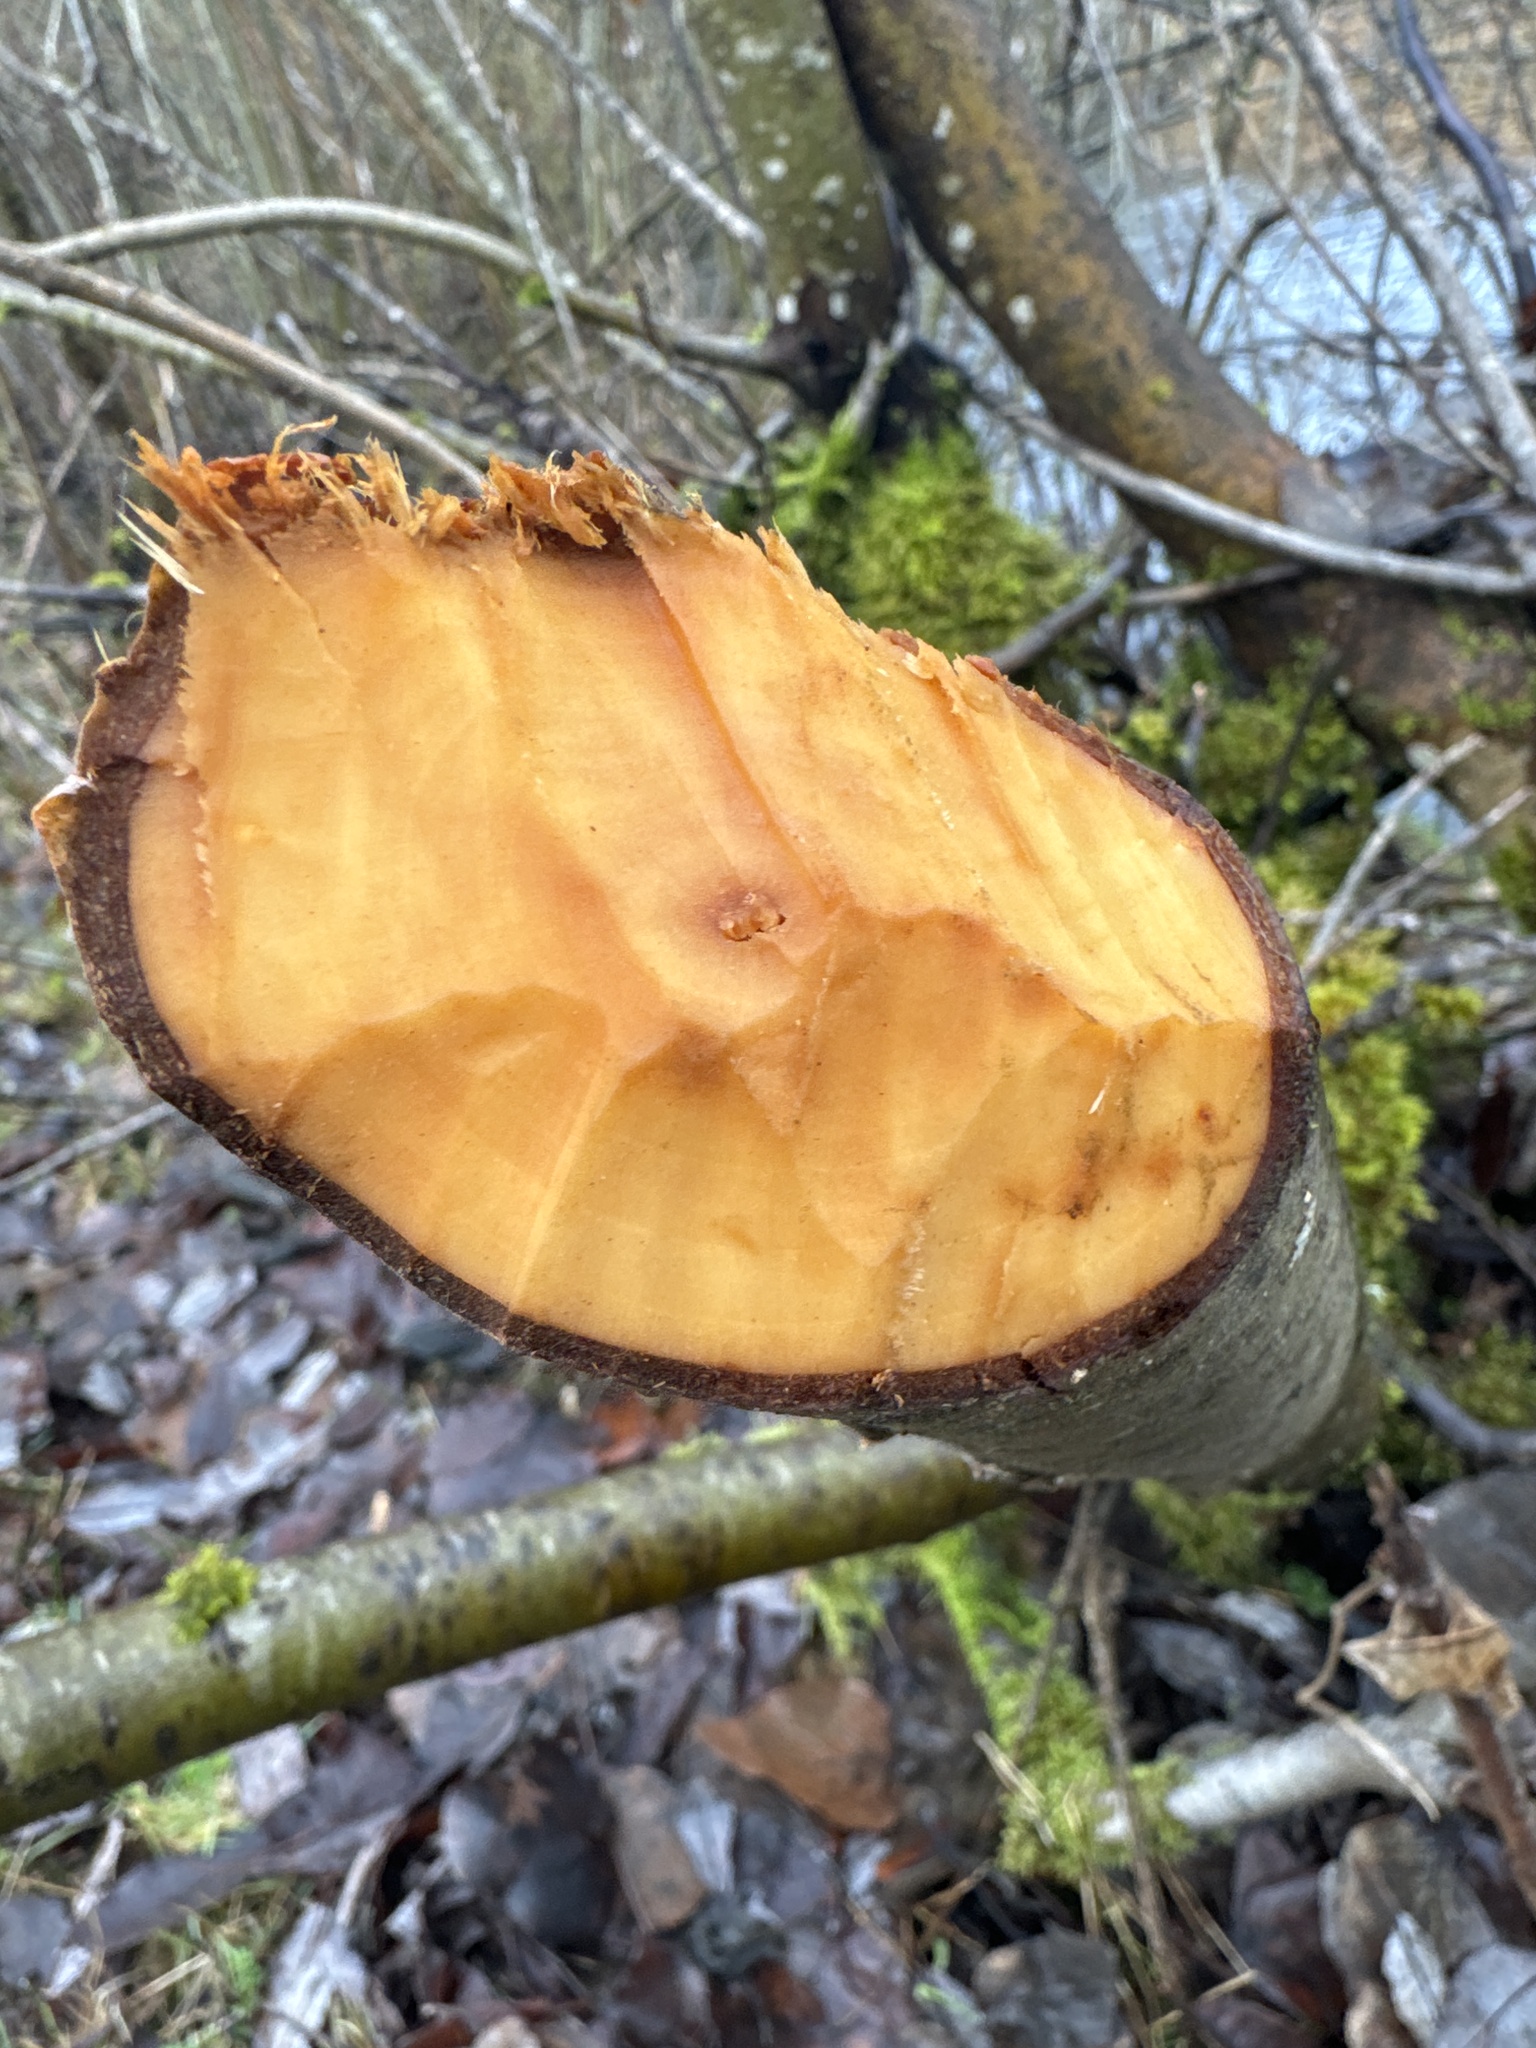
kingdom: Animalia
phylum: Chordata
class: Mammalia
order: Rodentia
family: Castoridae
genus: Castor
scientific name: Castor canadensis
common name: American beaver
